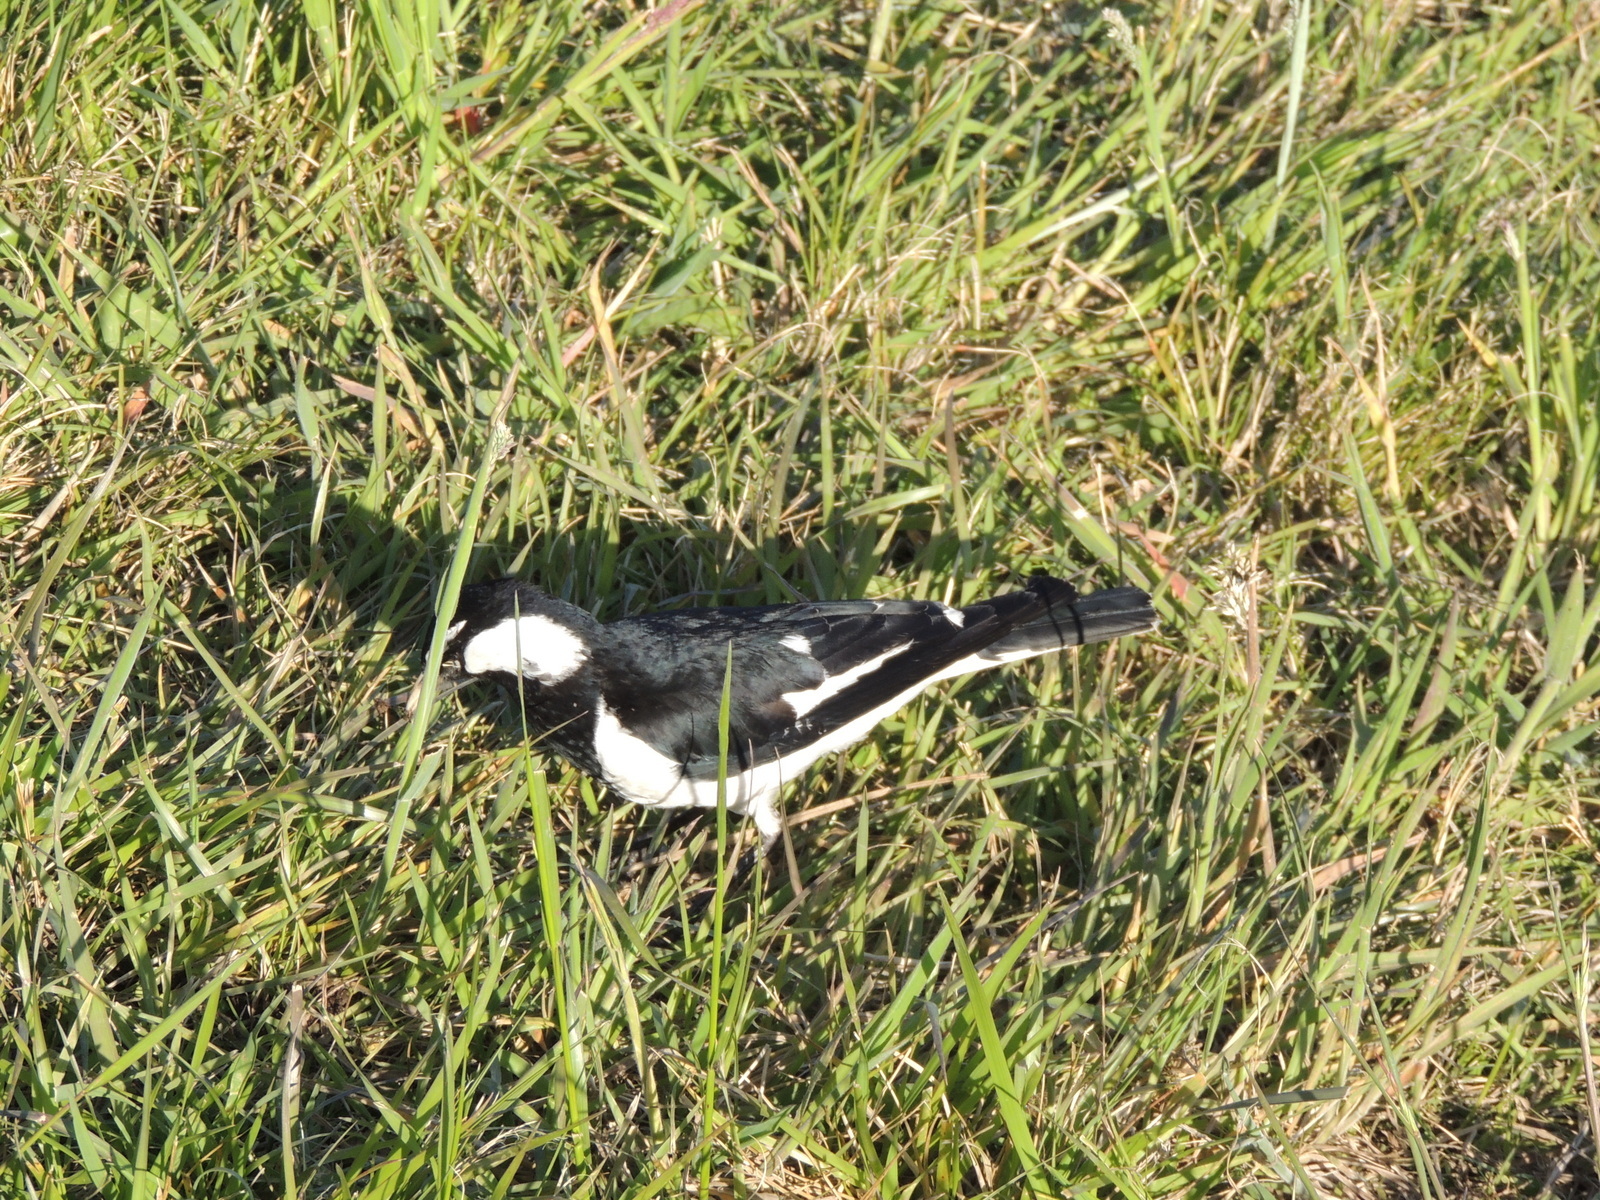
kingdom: Animalia
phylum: Chordata
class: Aves
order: Passeriformes
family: Monarchidae
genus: Grallina
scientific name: Grallina cyanoleuca
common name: Magpie-lark
